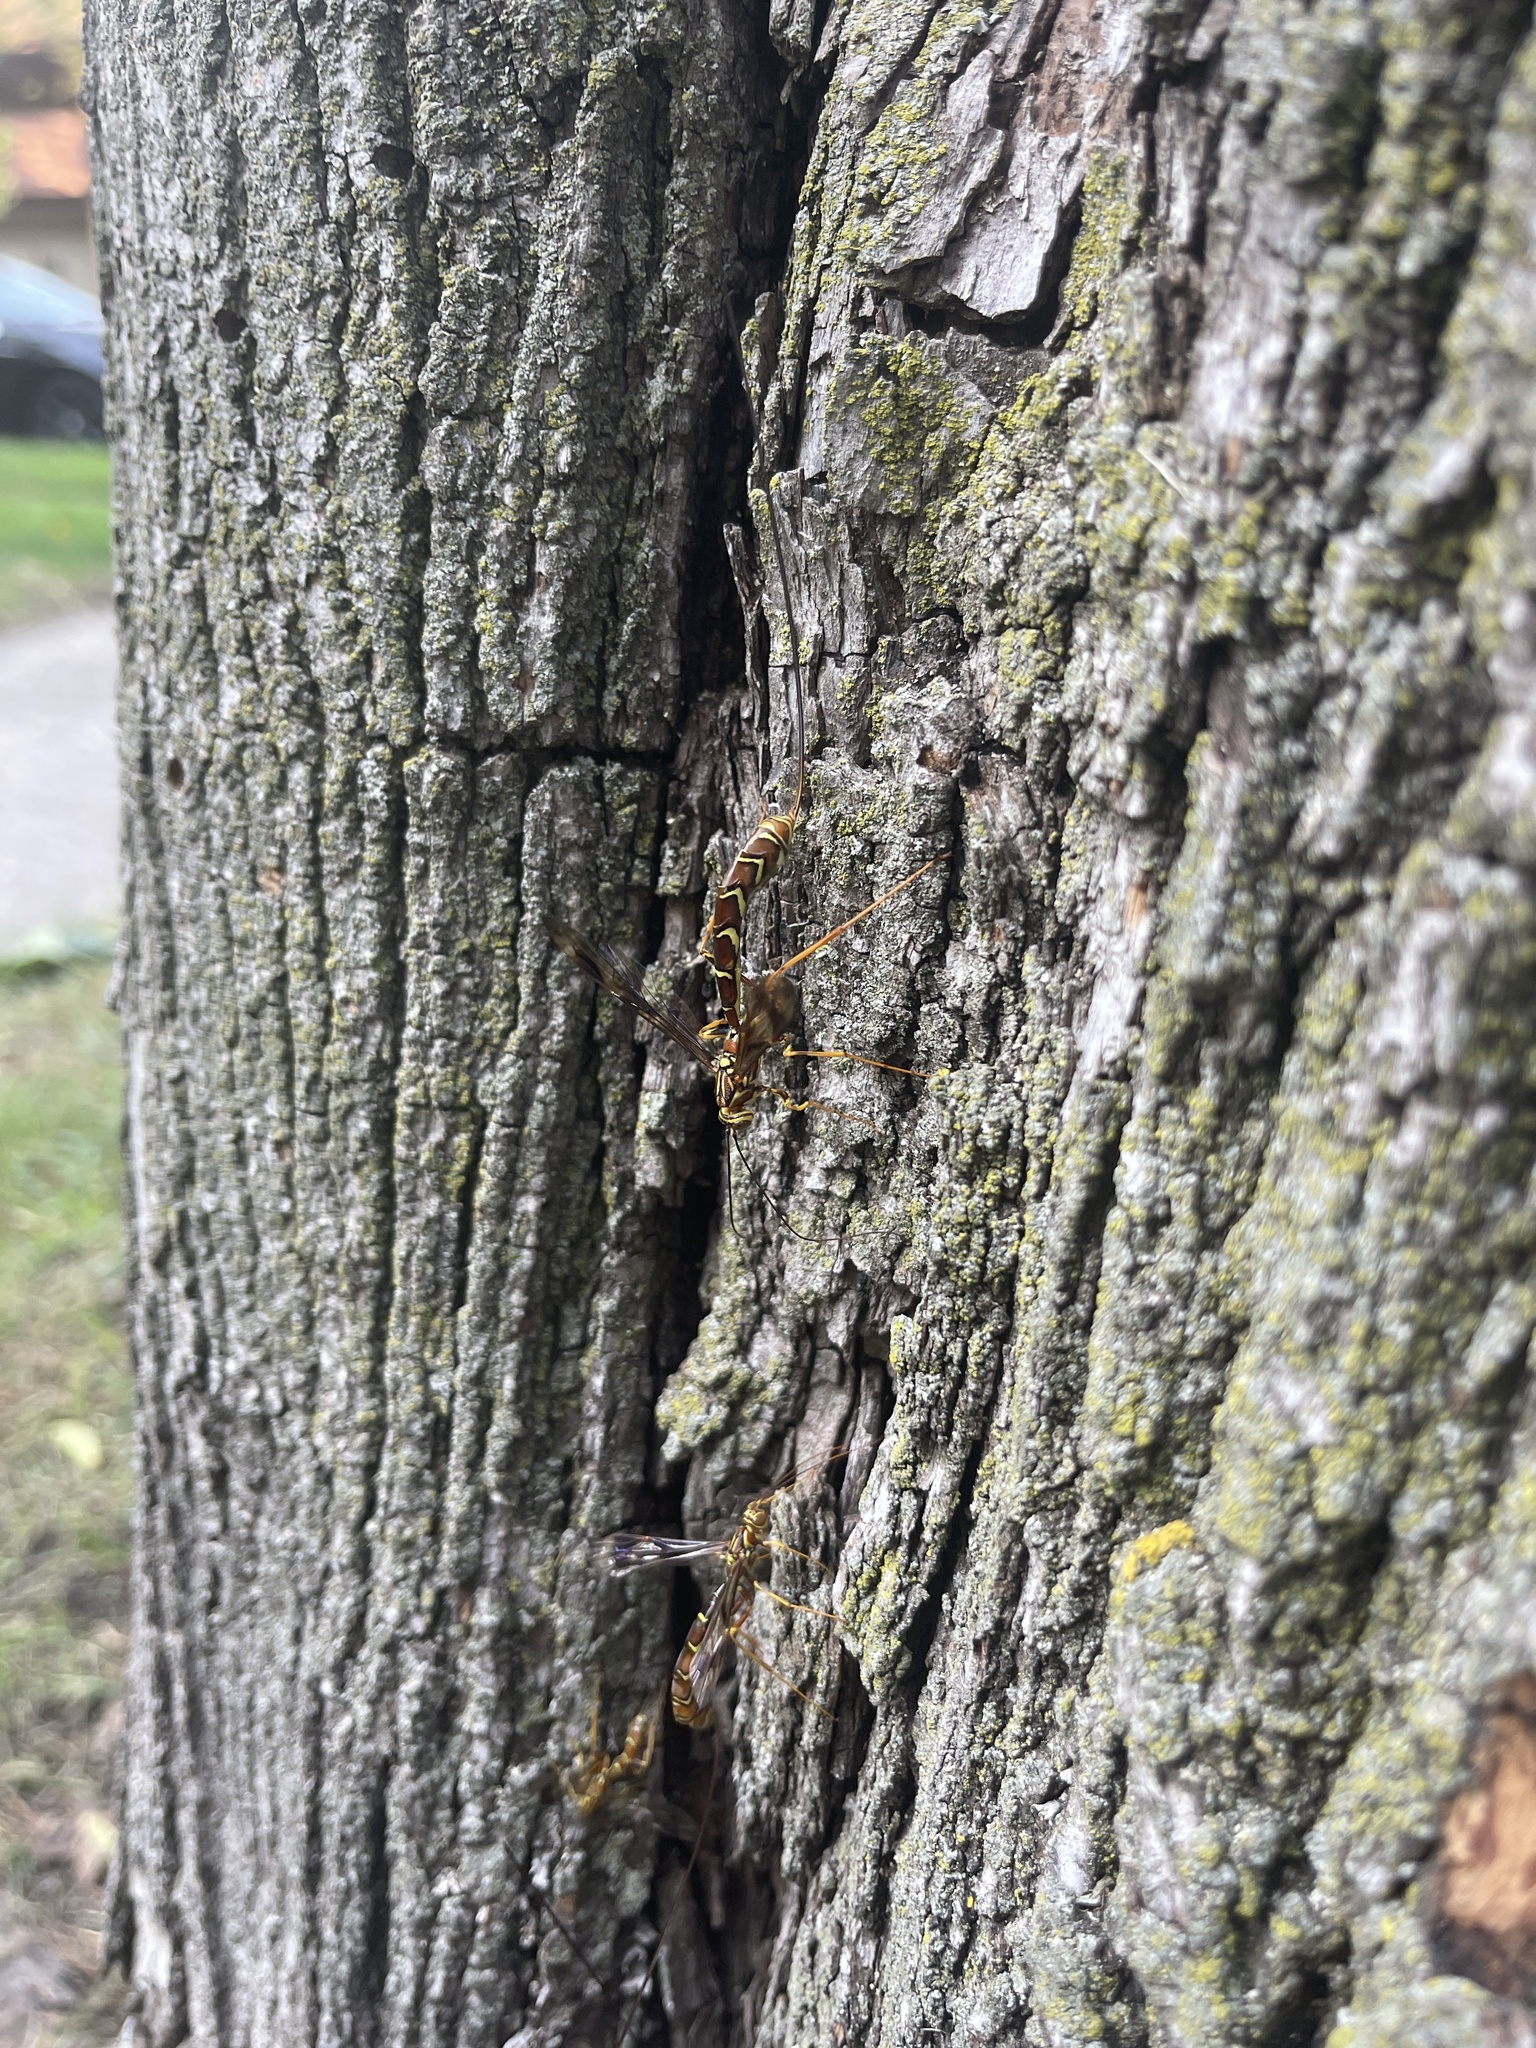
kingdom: Animalia
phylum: Arthropoda
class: Insecta
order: Hymenoptera
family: Ichneumonidae
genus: Megarhyssa
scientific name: Megarhyssa macrura
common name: Long-tailed giant ichneumonid wasp
